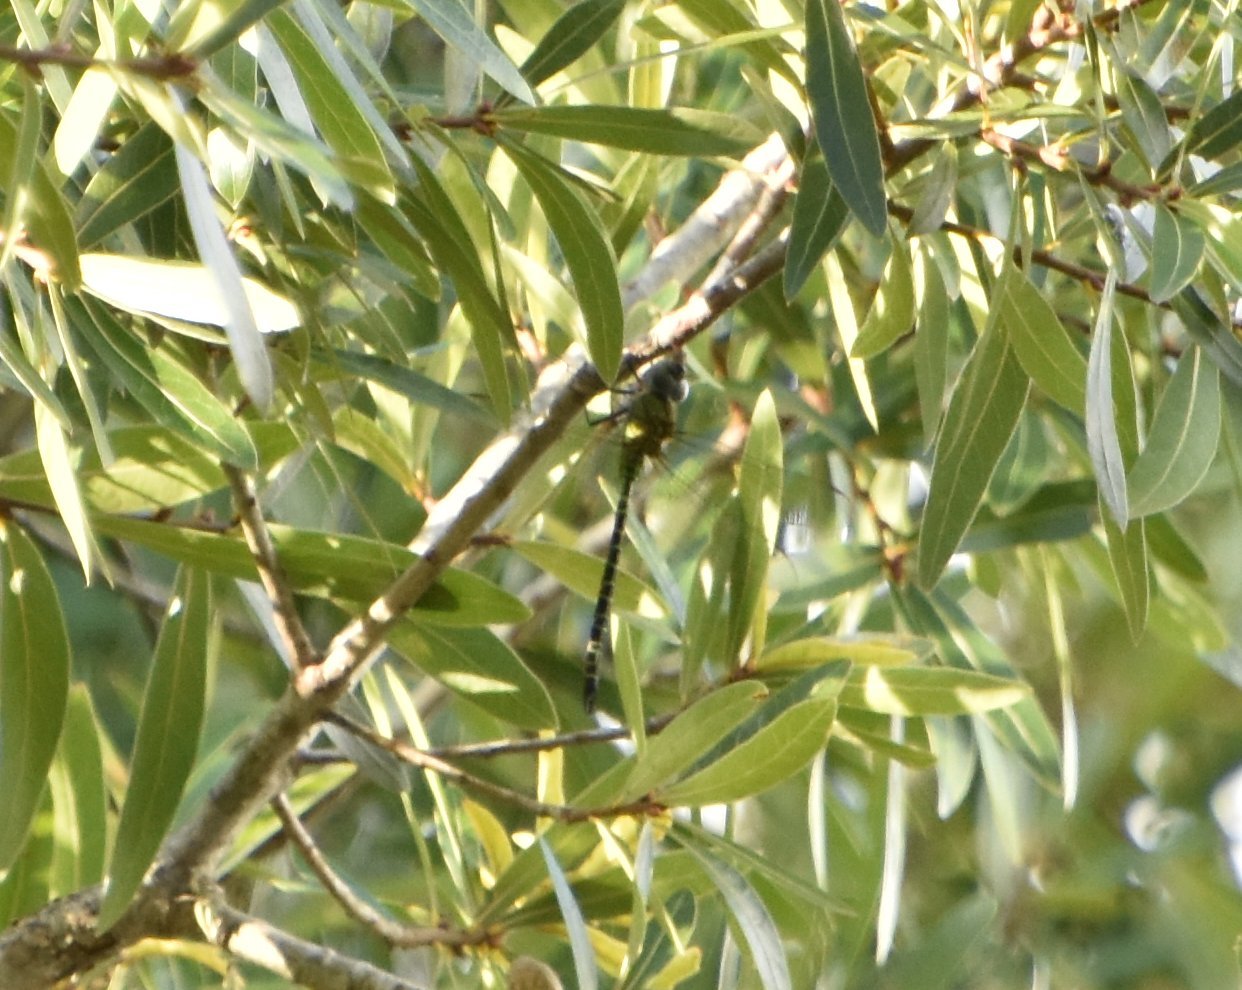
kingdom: Animalia
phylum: Arthropoda
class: Insecta
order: Odonata
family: Aeshnidae
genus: Coryphaeschna
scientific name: Coryphaeschna adnexa
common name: Blue-faced darner
